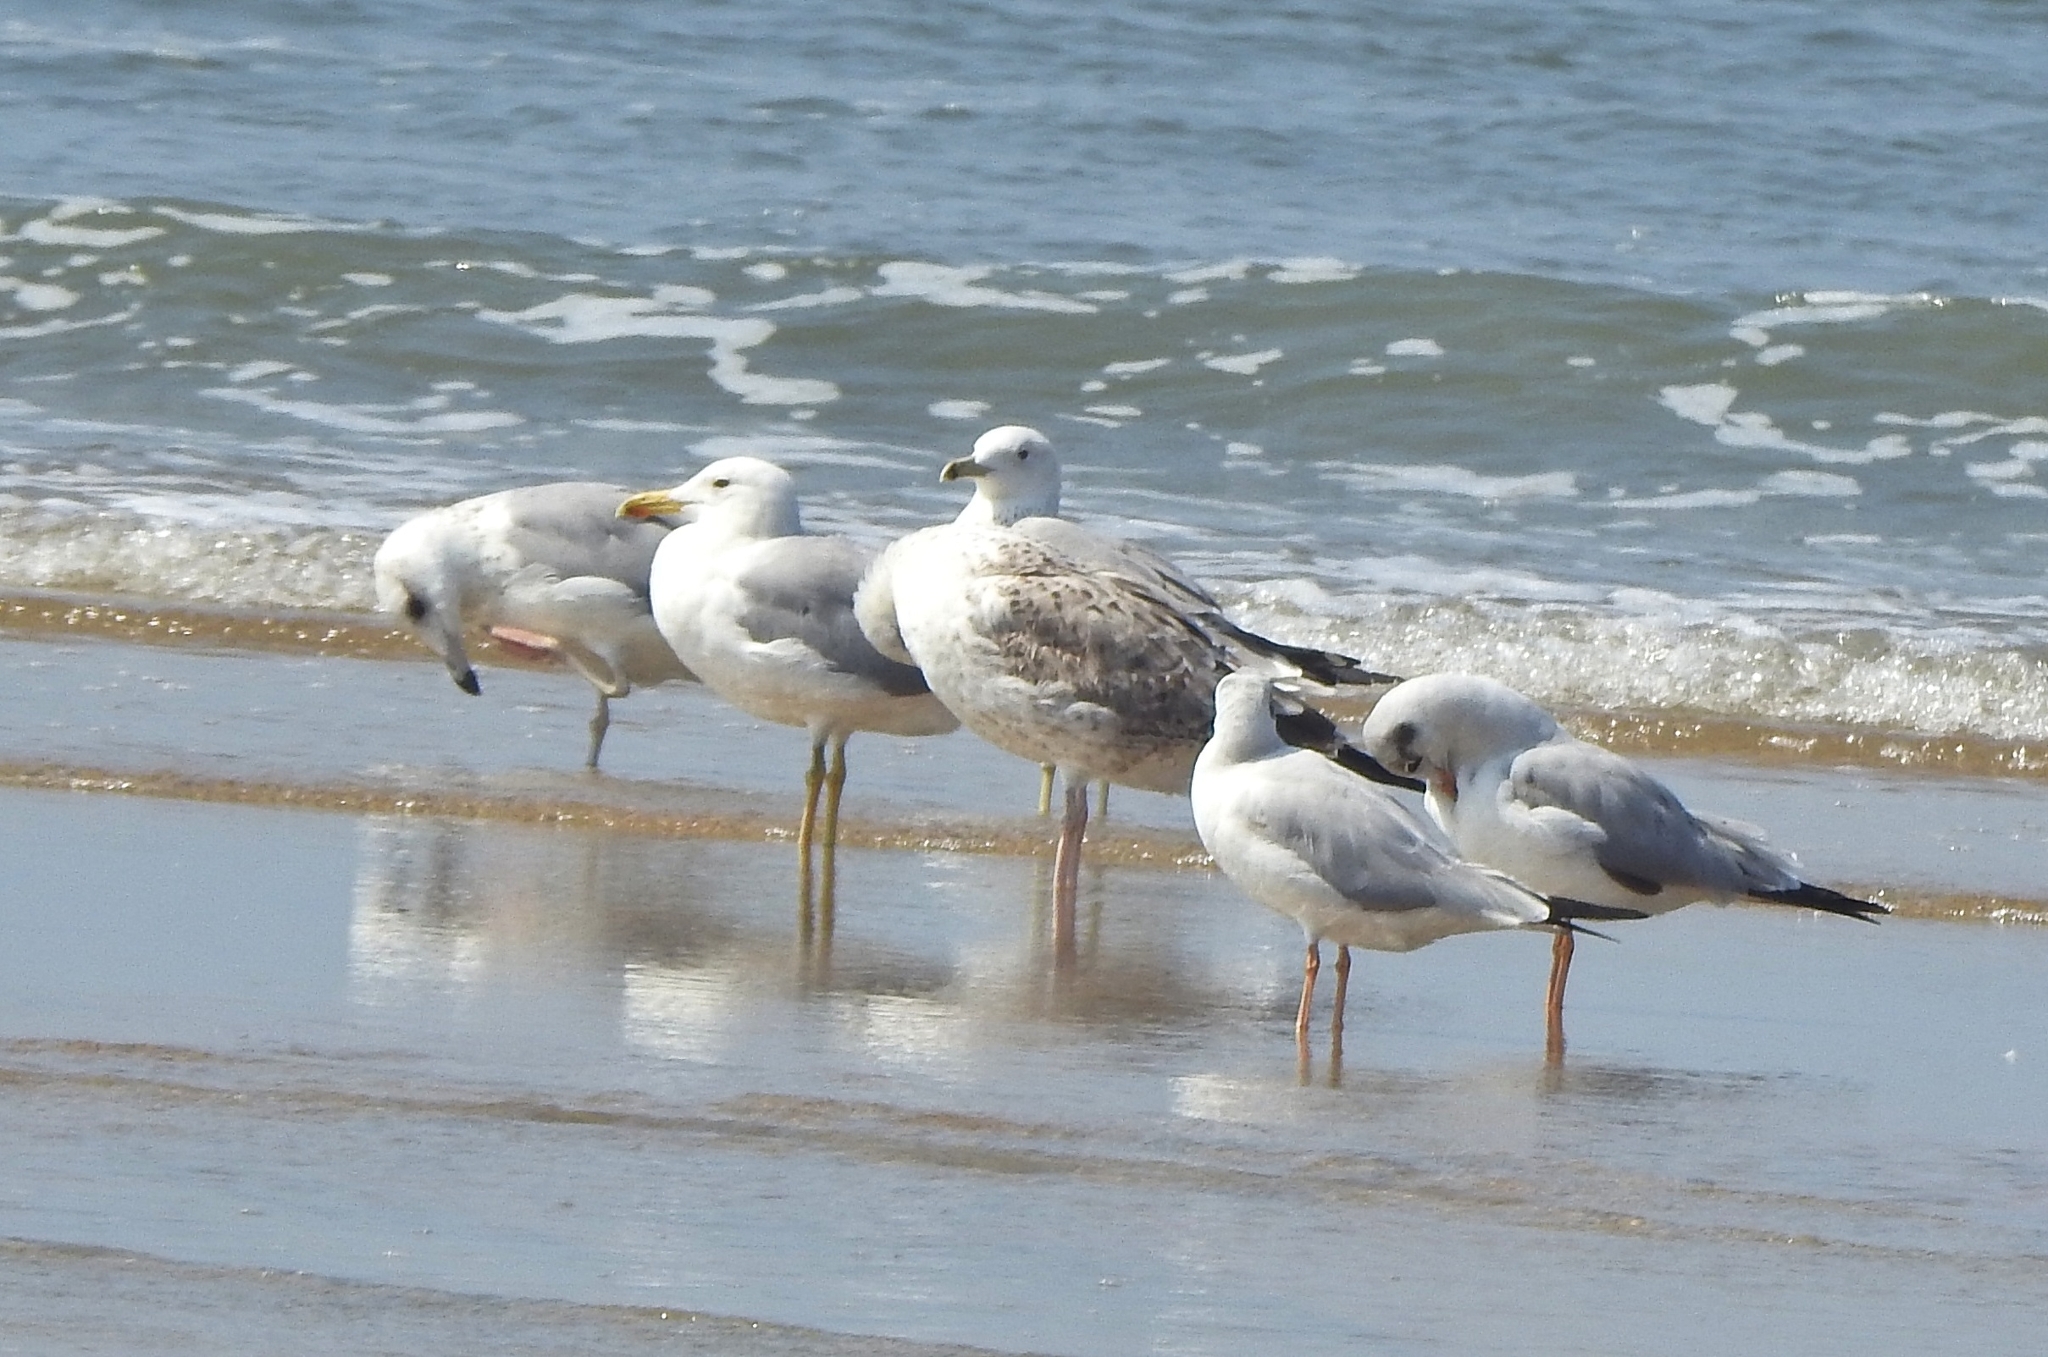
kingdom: Animalia
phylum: Chordata
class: Aves
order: Charadriiformes
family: Laridae
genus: Larus
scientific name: Larus fuscus
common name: Lesser black-backed gull
